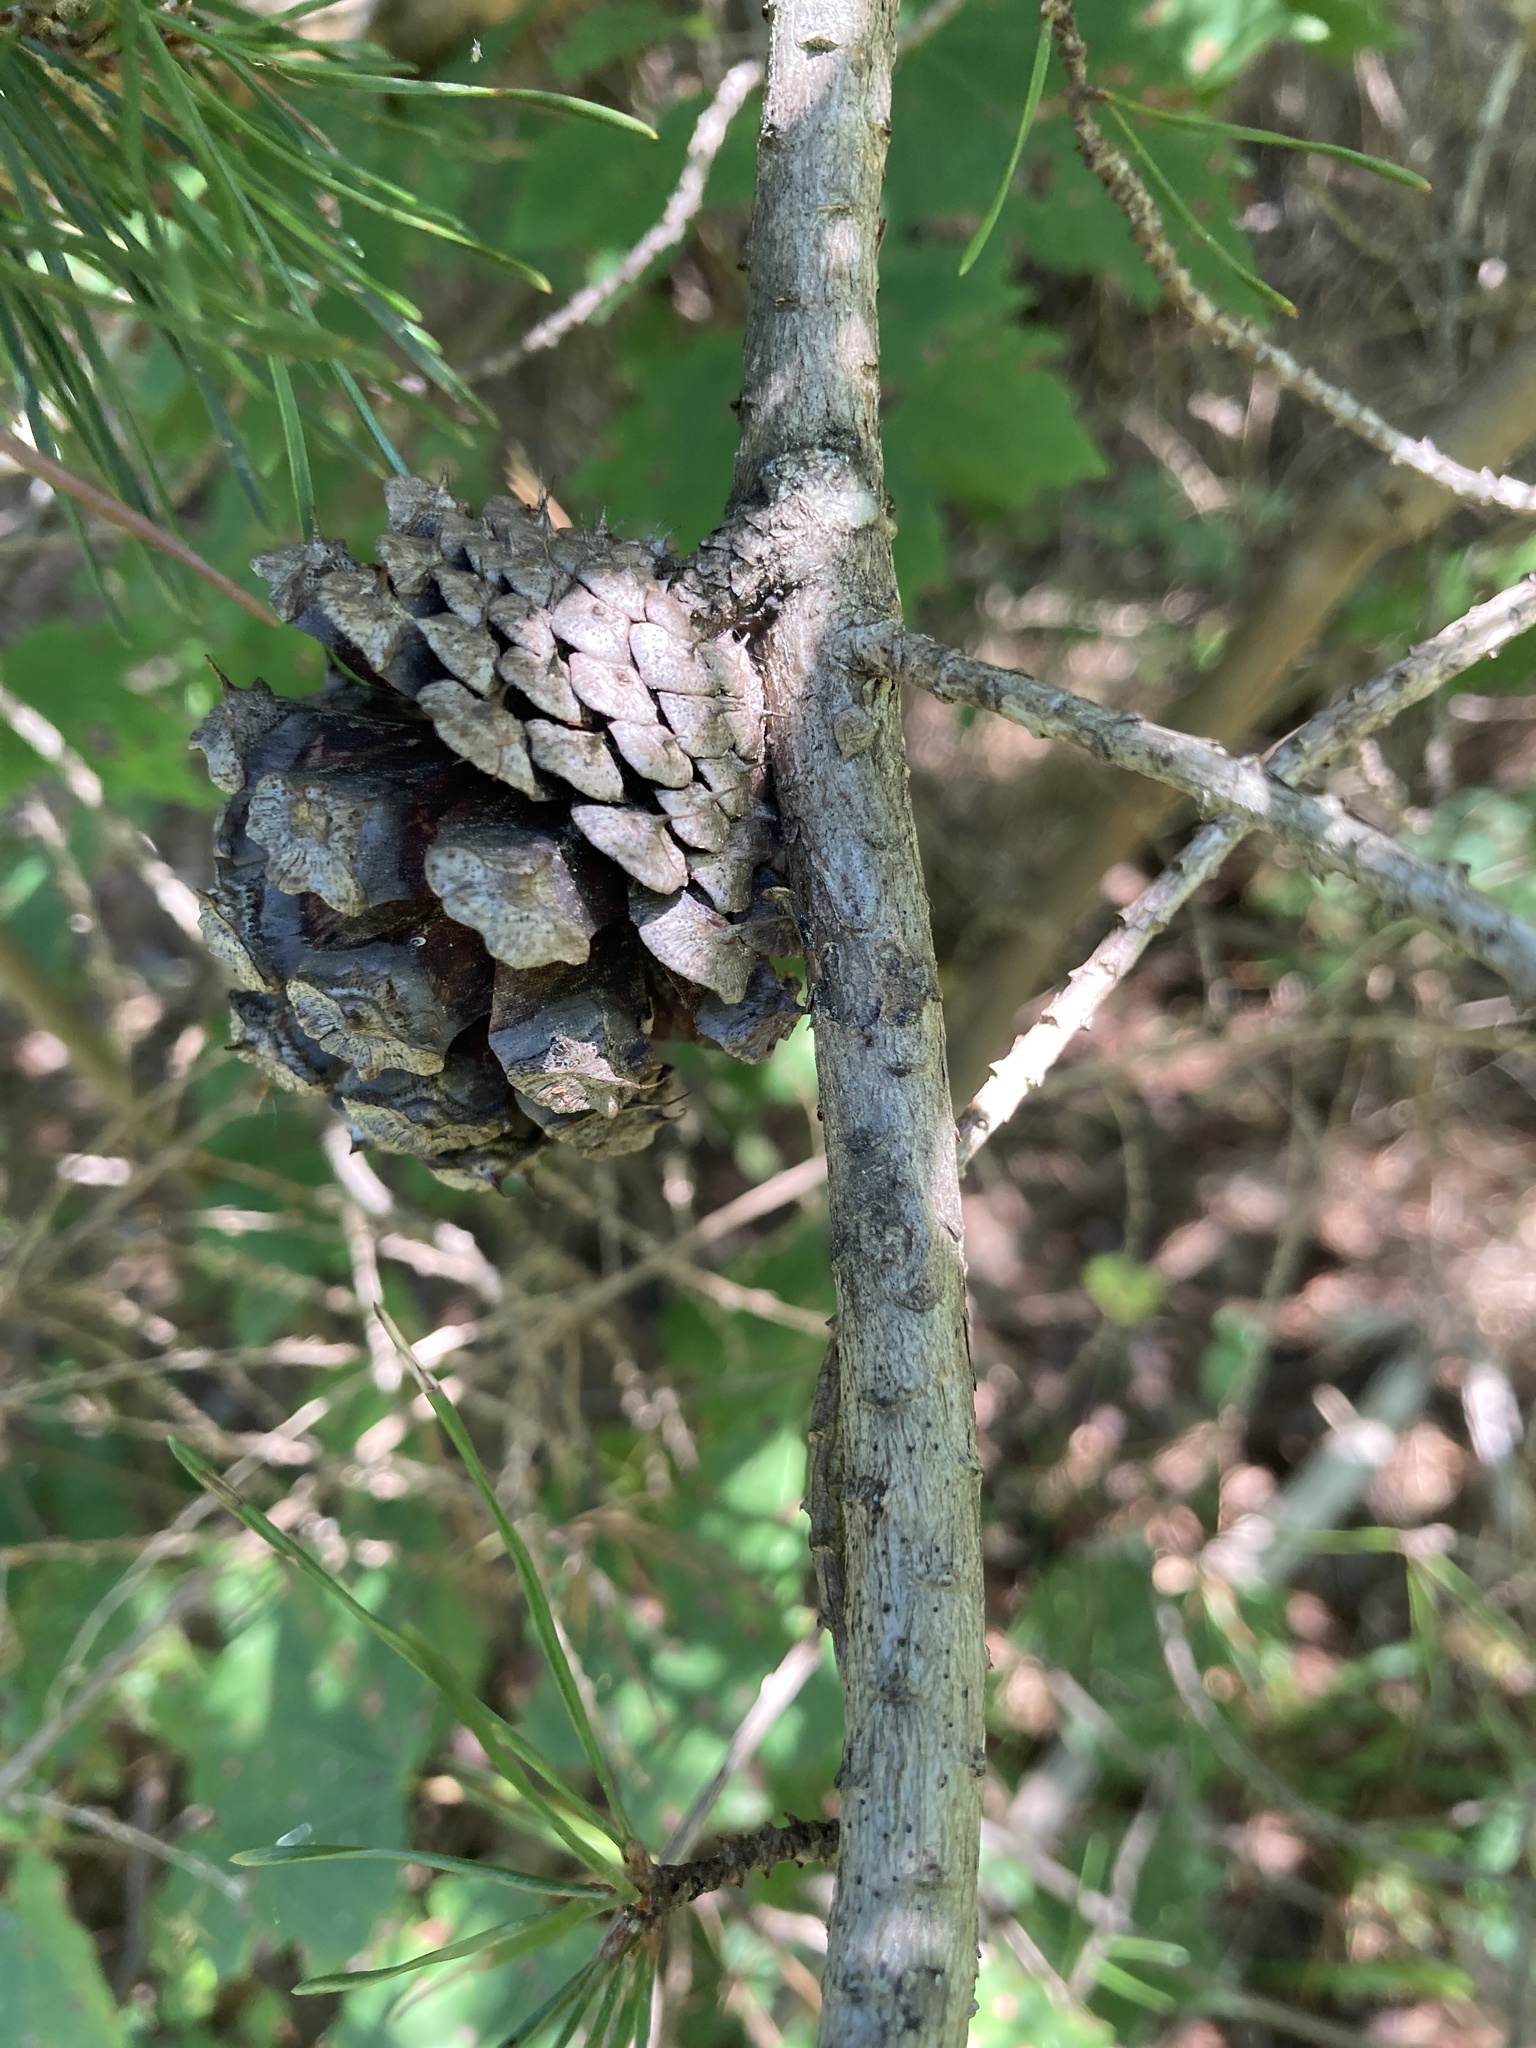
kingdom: Plantae
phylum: Tracheophyta
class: Pinopsida
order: Pinales
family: Pinaceae
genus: Pinus
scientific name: Pinus echinata
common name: Shortleaf pine
